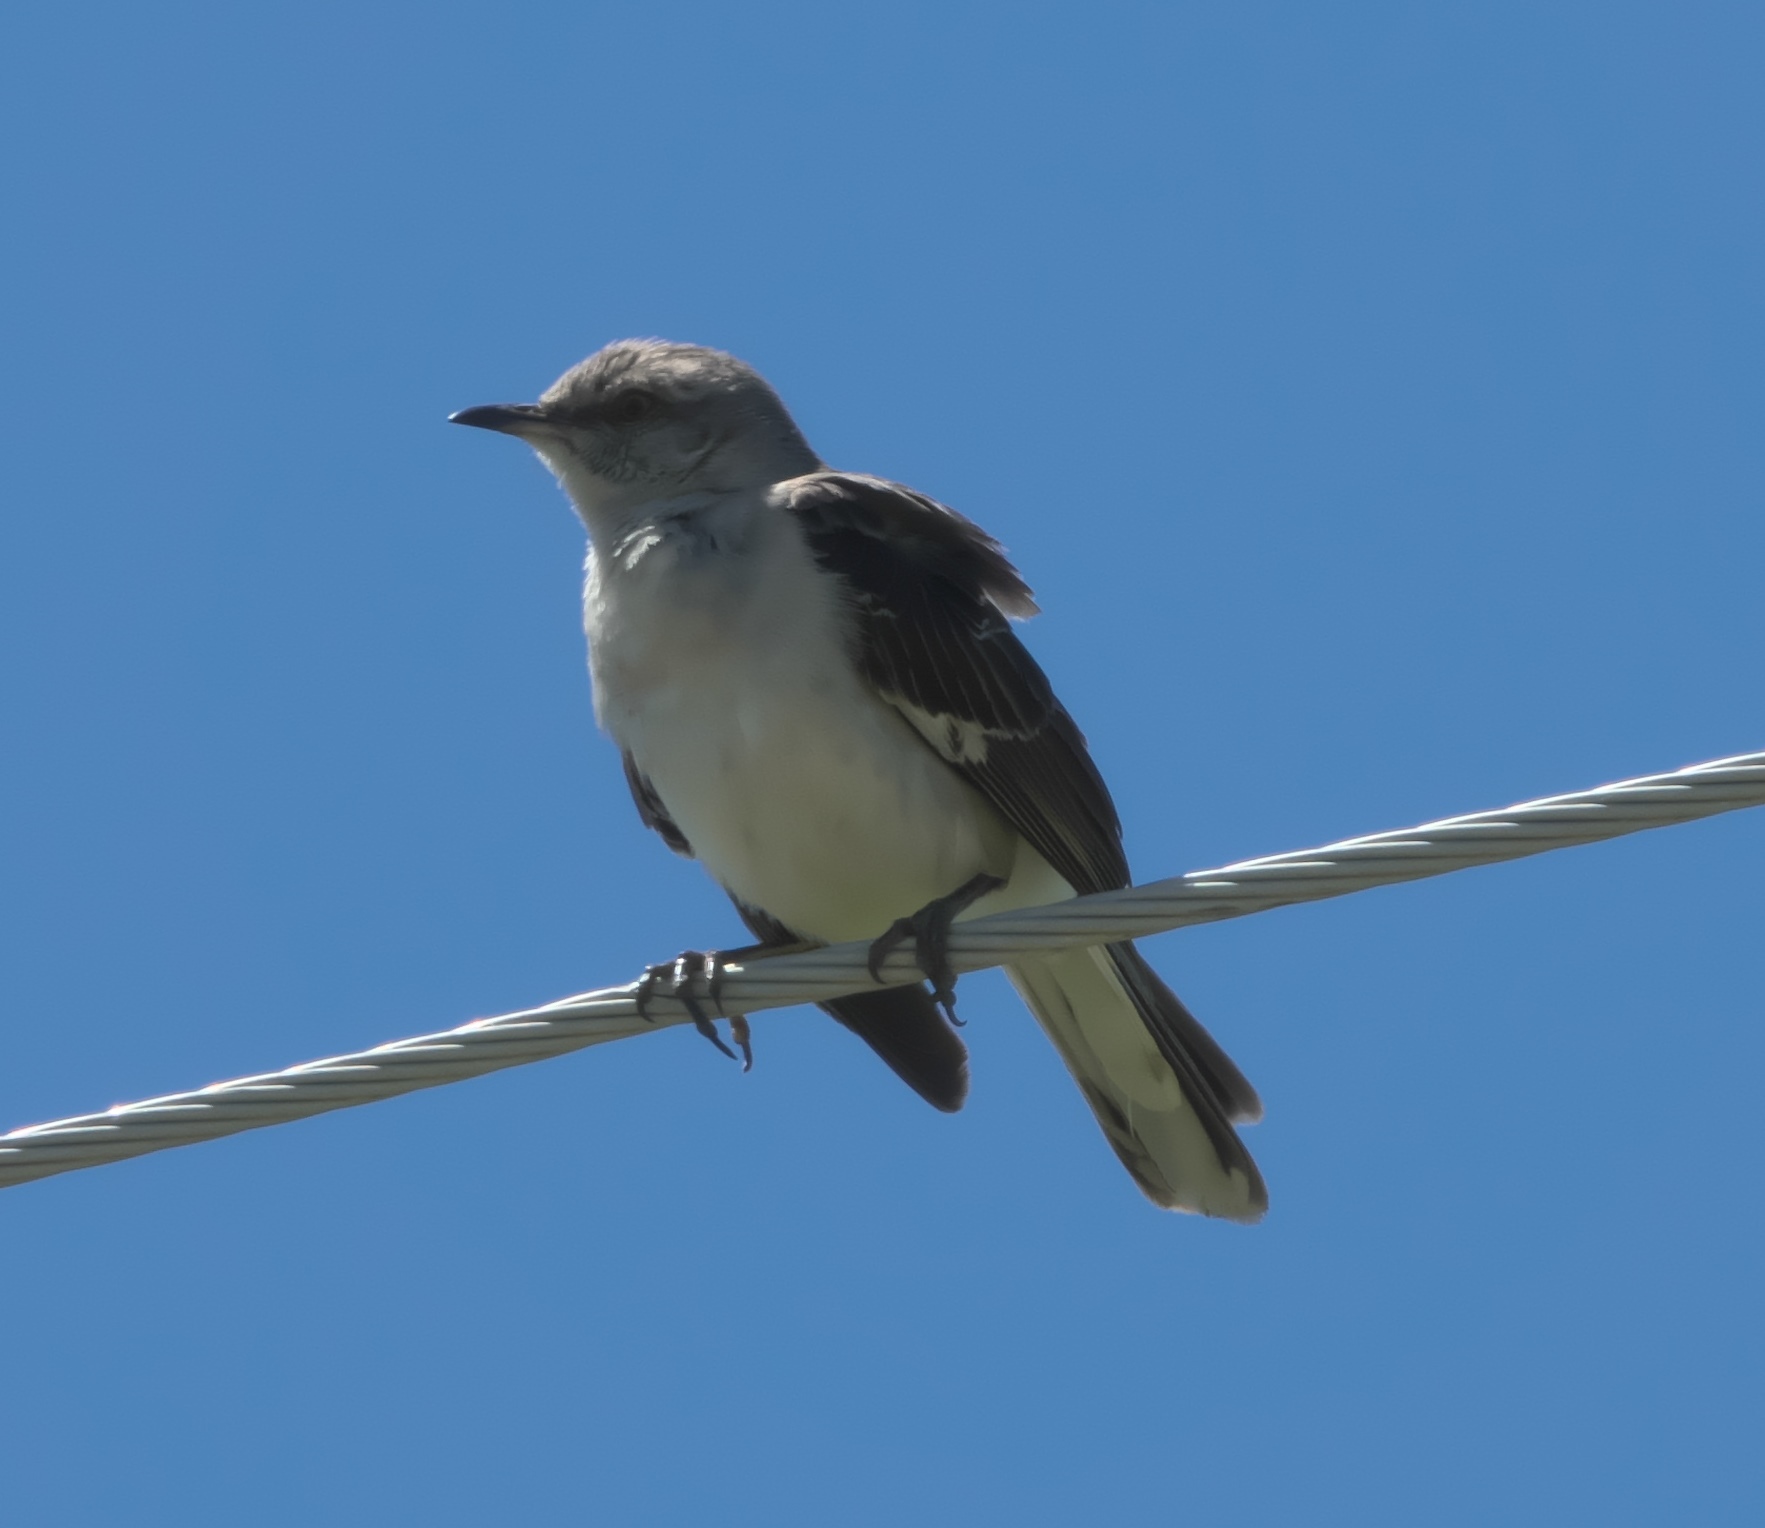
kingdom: Animalia
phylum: Chordata
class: Aves
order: Passeriformes
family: Mimidae
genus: Mimus
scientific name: Mimus polyglottos
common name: Northern mockingbird
